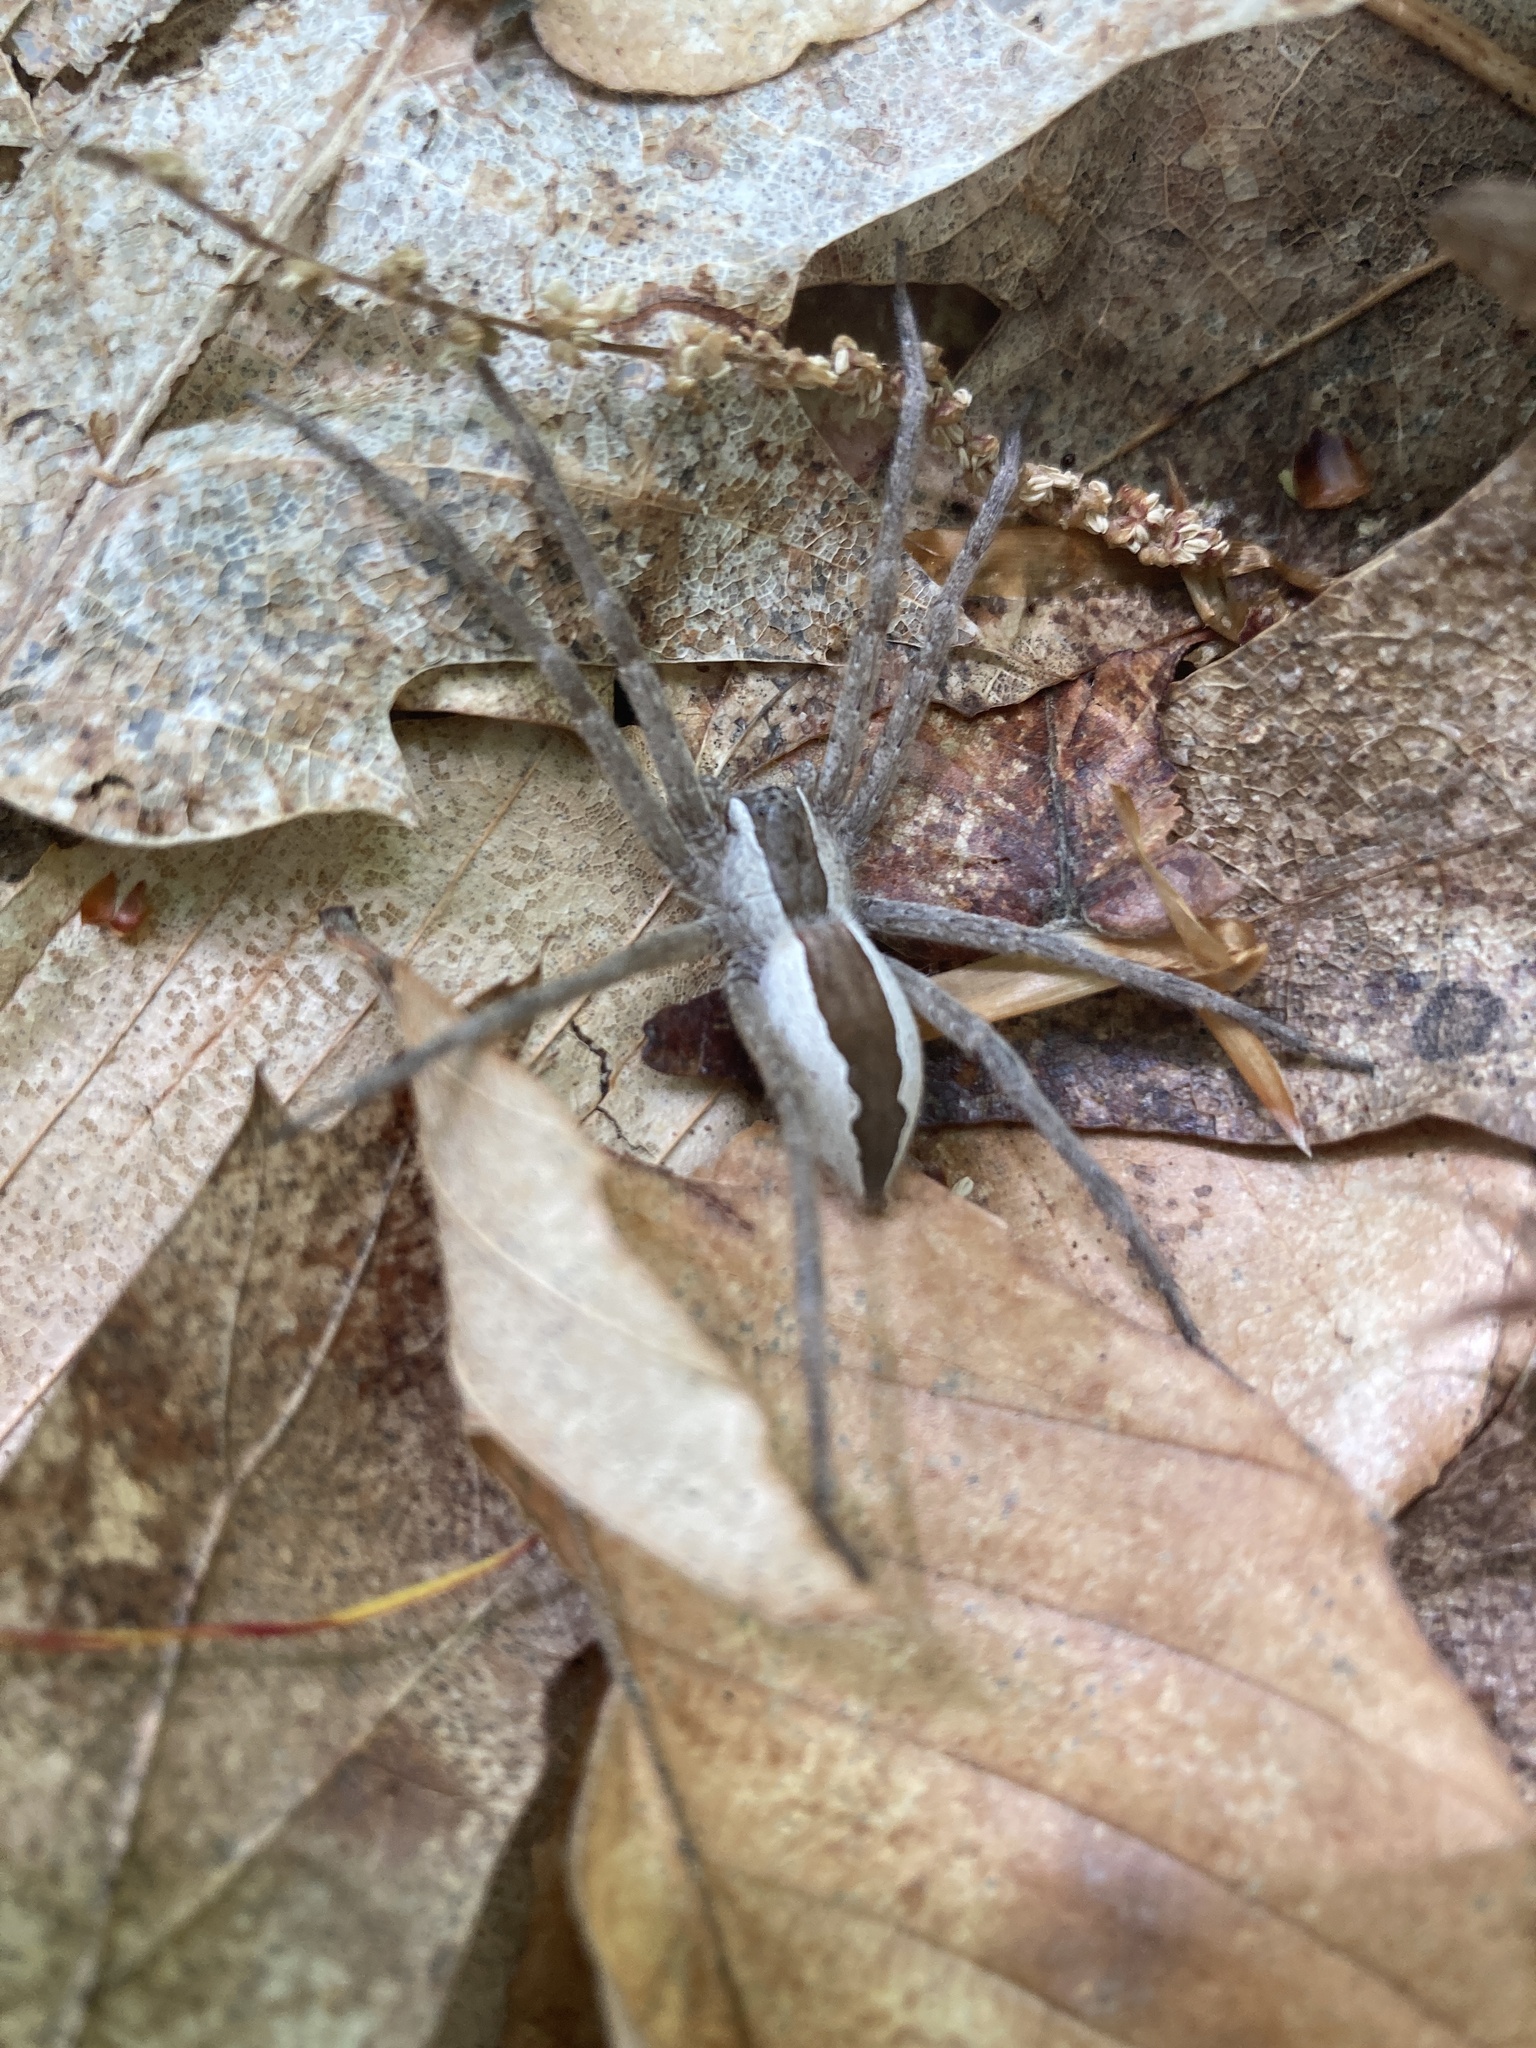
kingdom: Animalia
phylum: Arthropoda
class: Arachnida
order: Araneae
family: Pisauridae
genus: Pisaurina
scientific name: Pisaurina mira
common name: American nursery web spider
